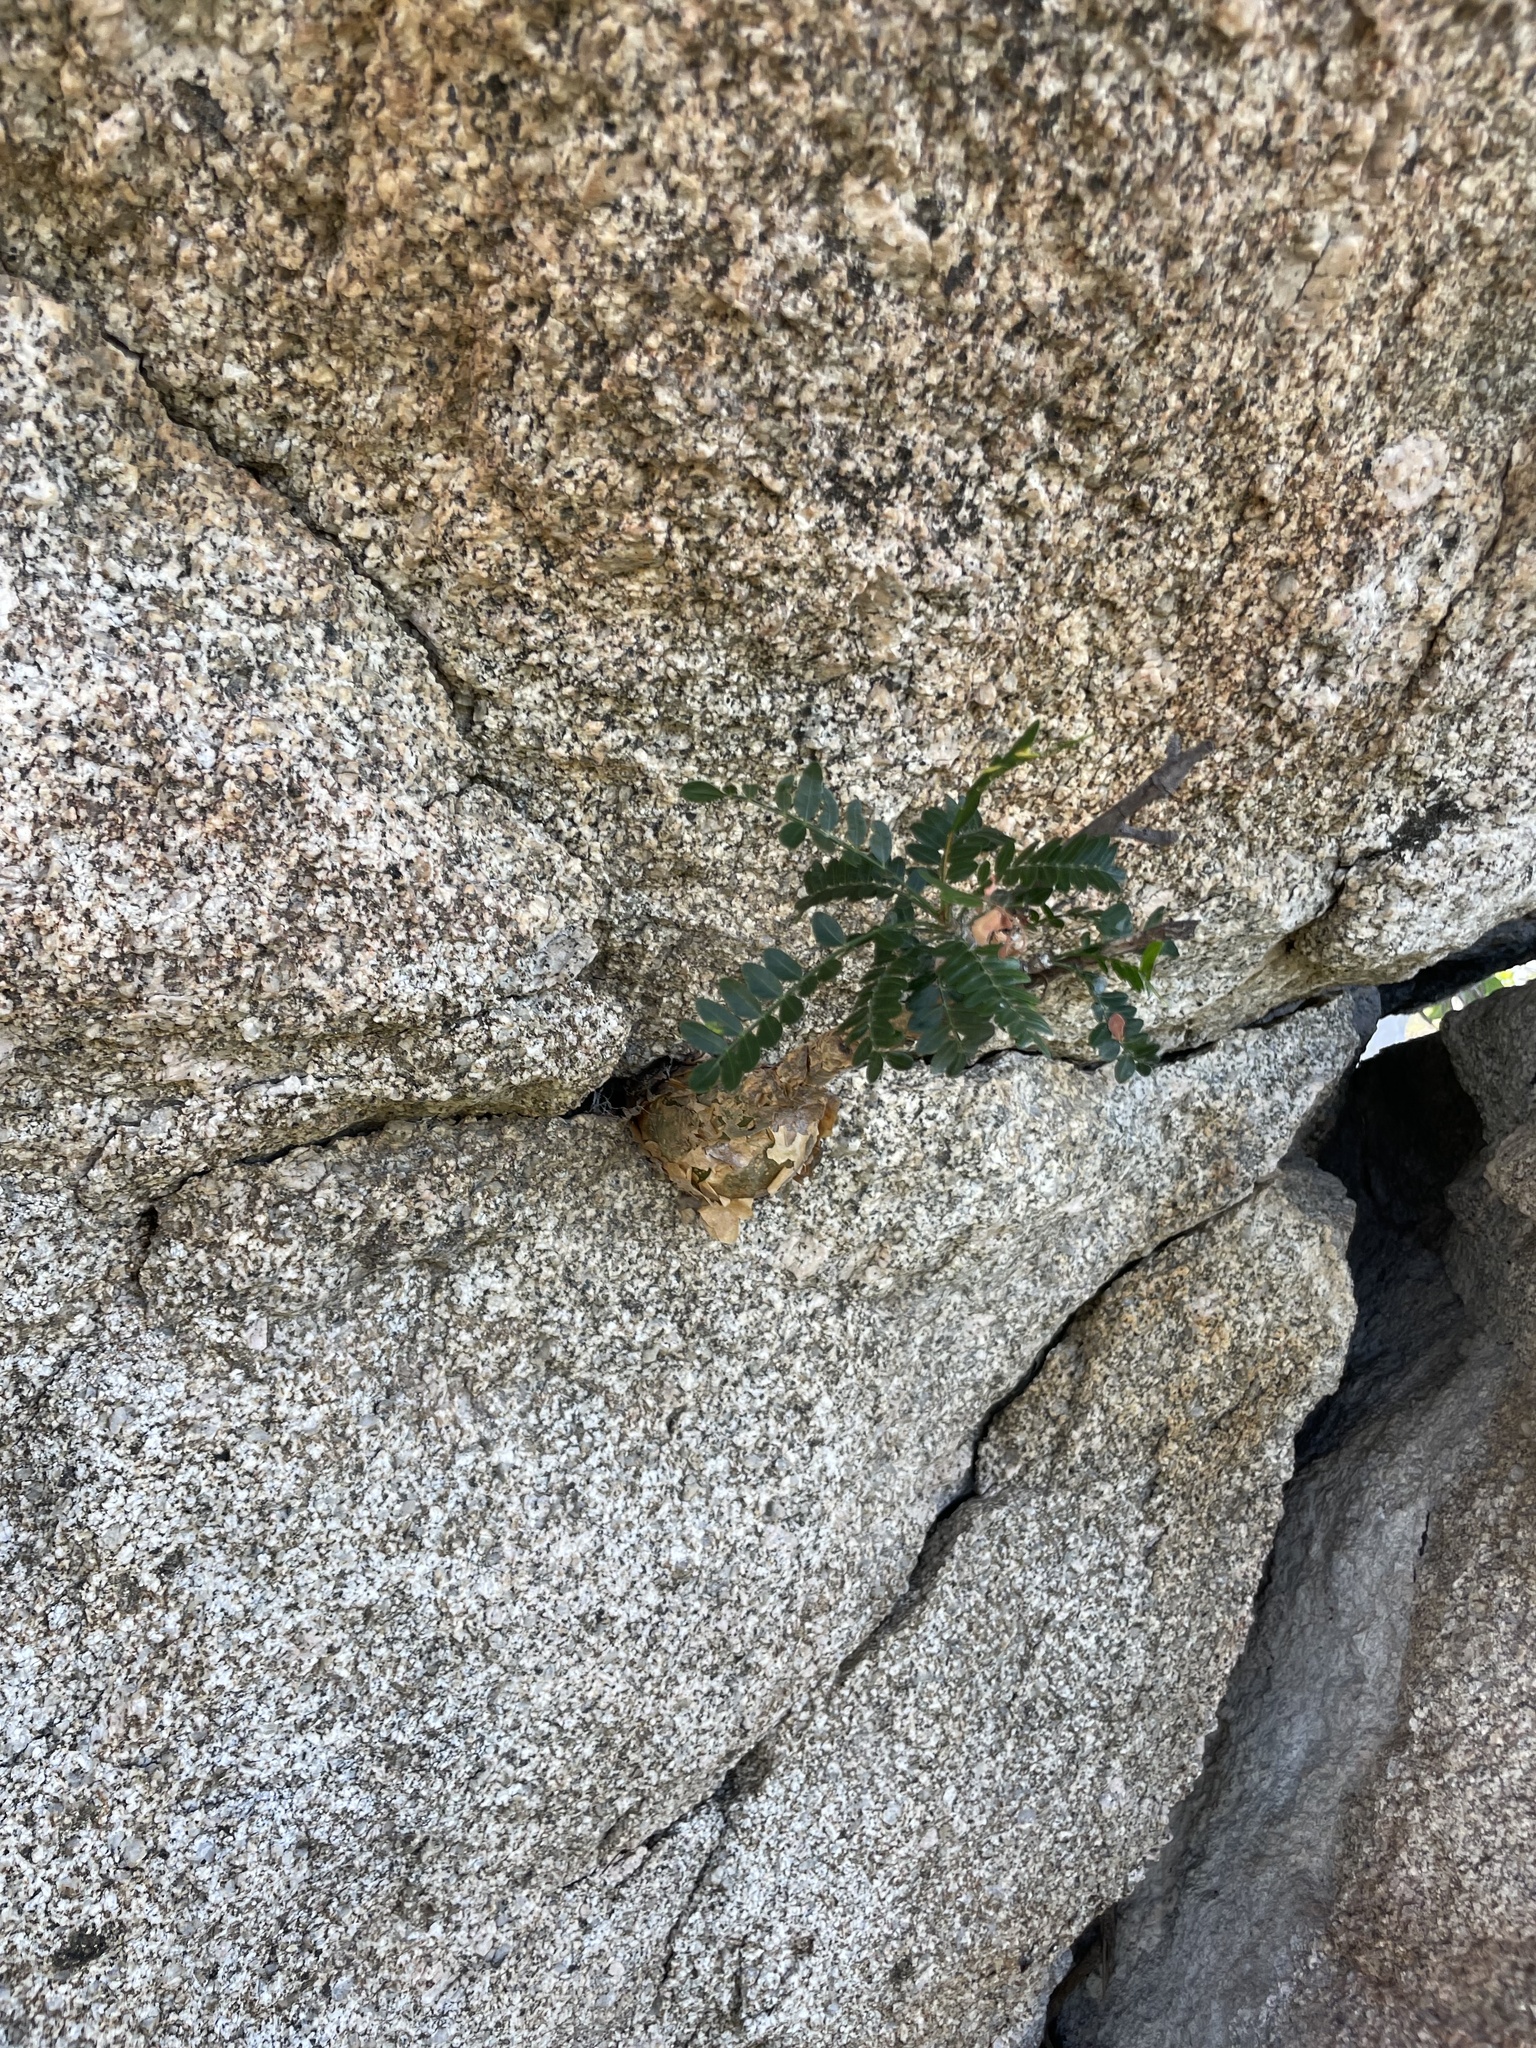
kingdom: Plantae
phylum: Tracheophyta
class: Magnoliopsida
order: Sapindales
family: Burseraceae
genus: Bursera
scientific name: Bursera microphylla
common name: Elephant tree
